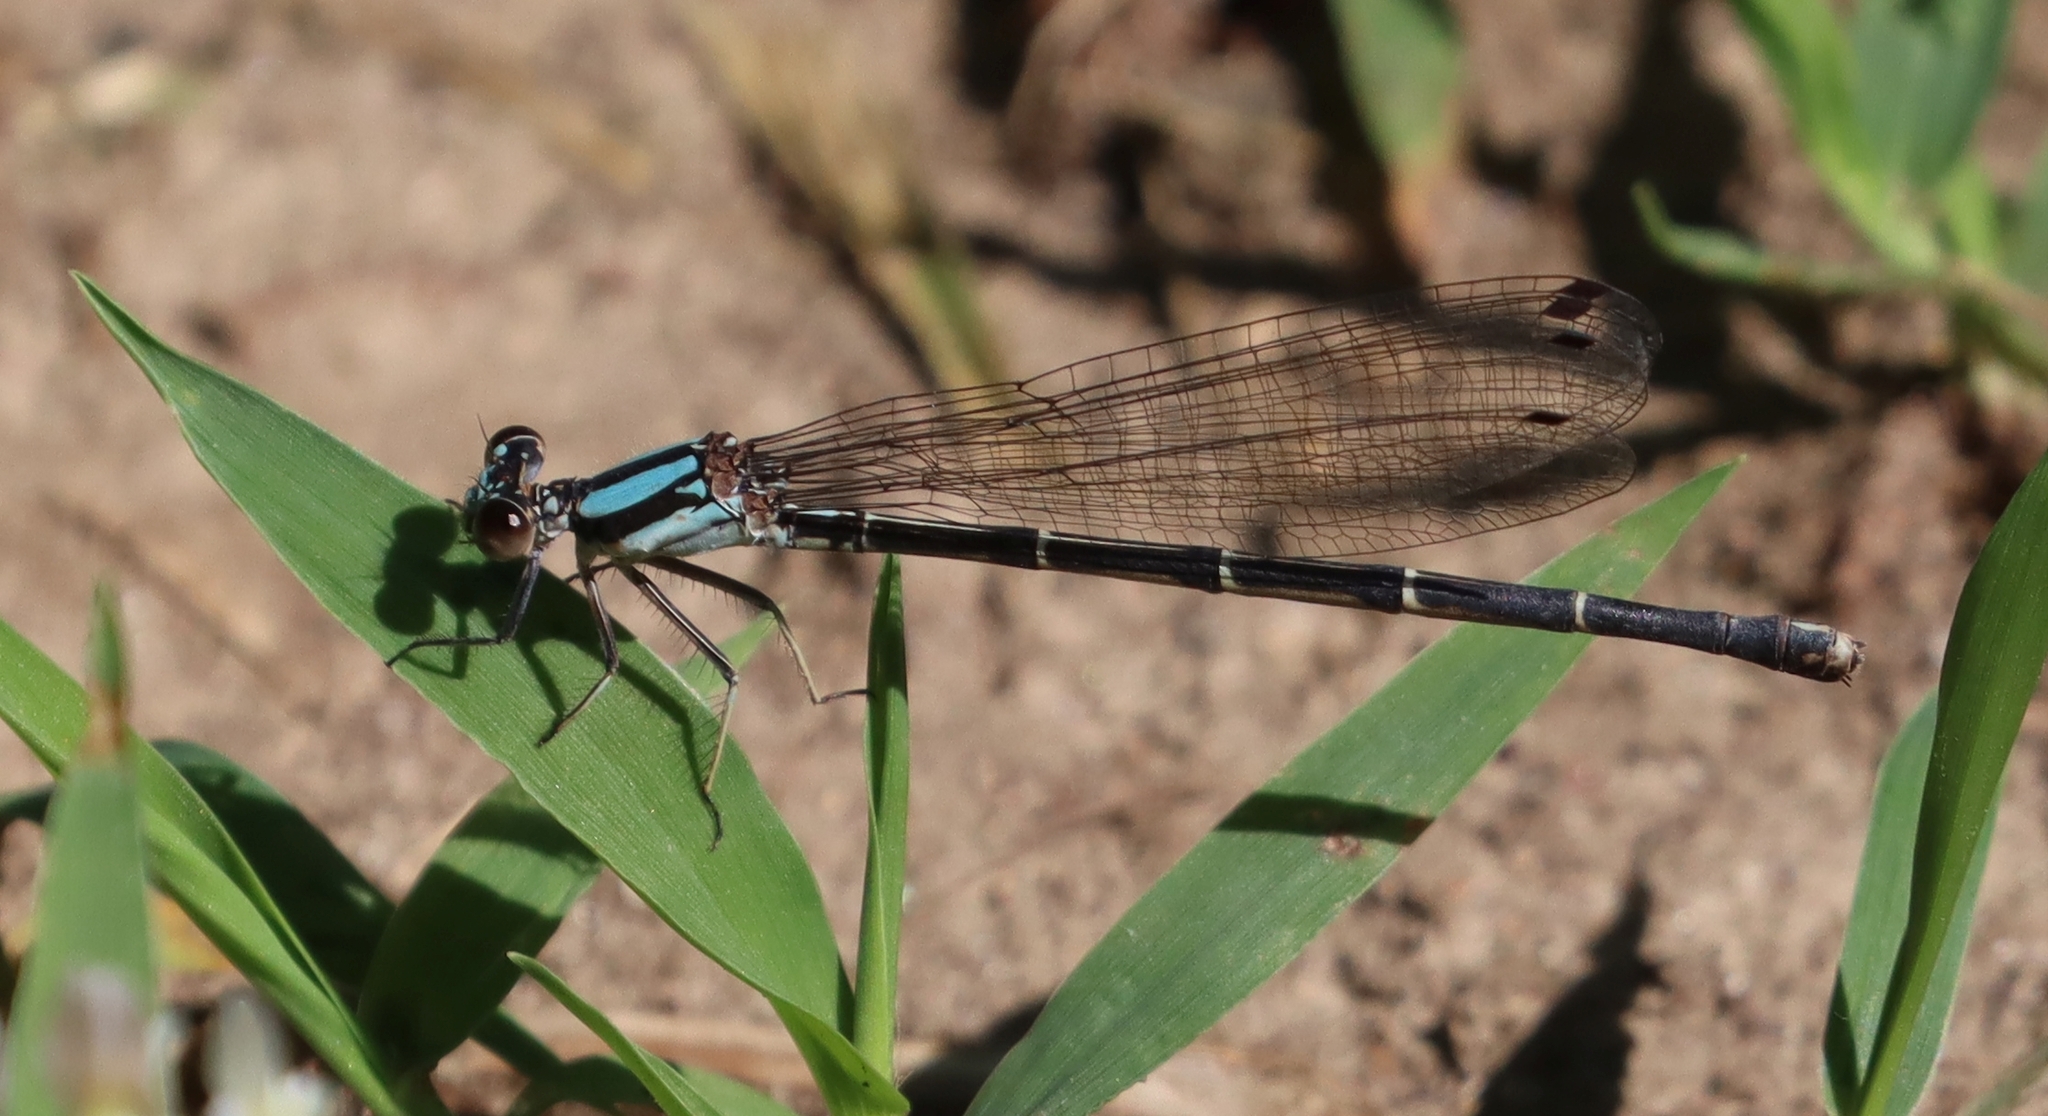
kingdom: Animalia
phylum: Arthropoda
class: Insecta
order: Odonata
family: Coenagrionidae
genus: Argia
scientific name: Argia tibialis
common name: Blue-tipped dancer
